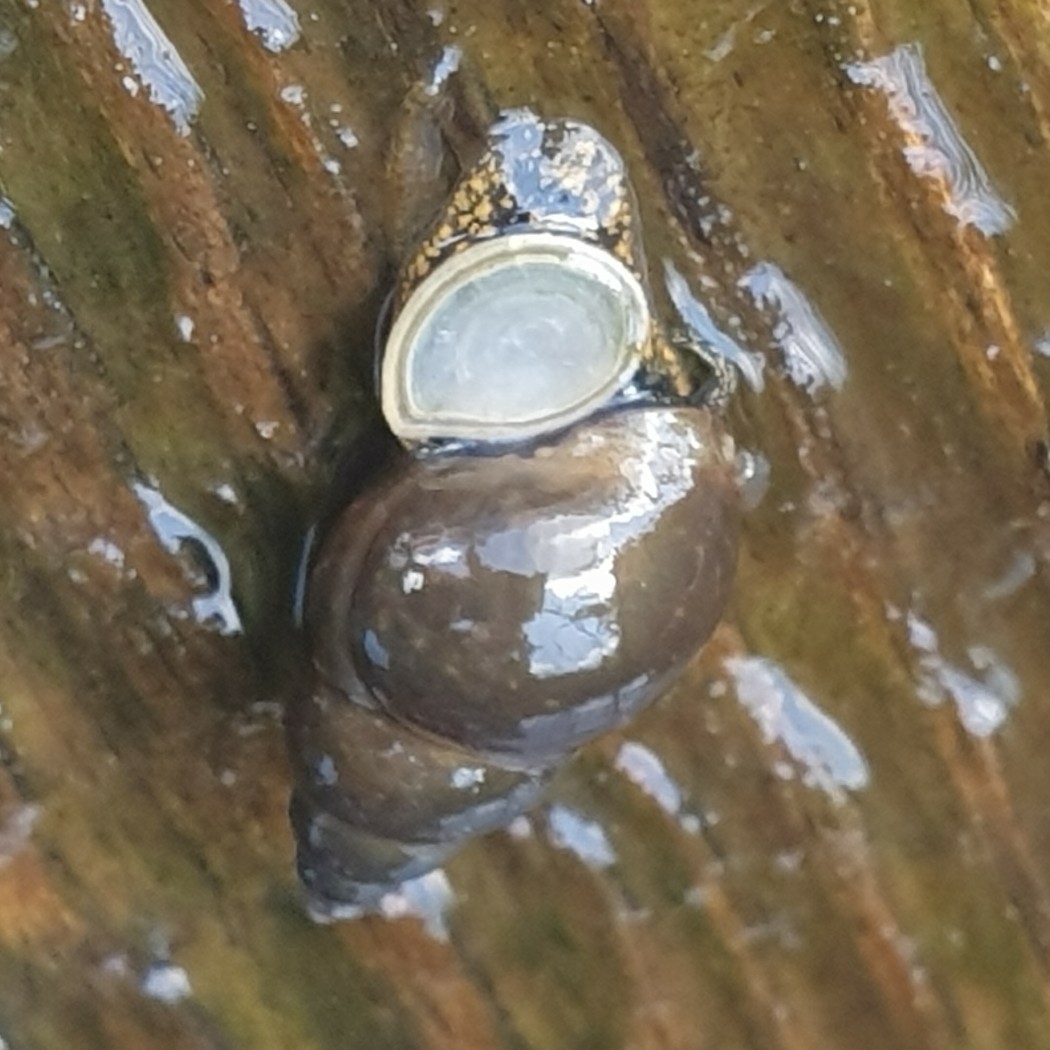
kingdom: Animalia
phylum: Mollusca
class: Gastropoda
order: Littorinimorpha
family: Bithyniidae
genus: Bithynia
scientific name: Bithynia tentaculata
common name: Common bithynia
